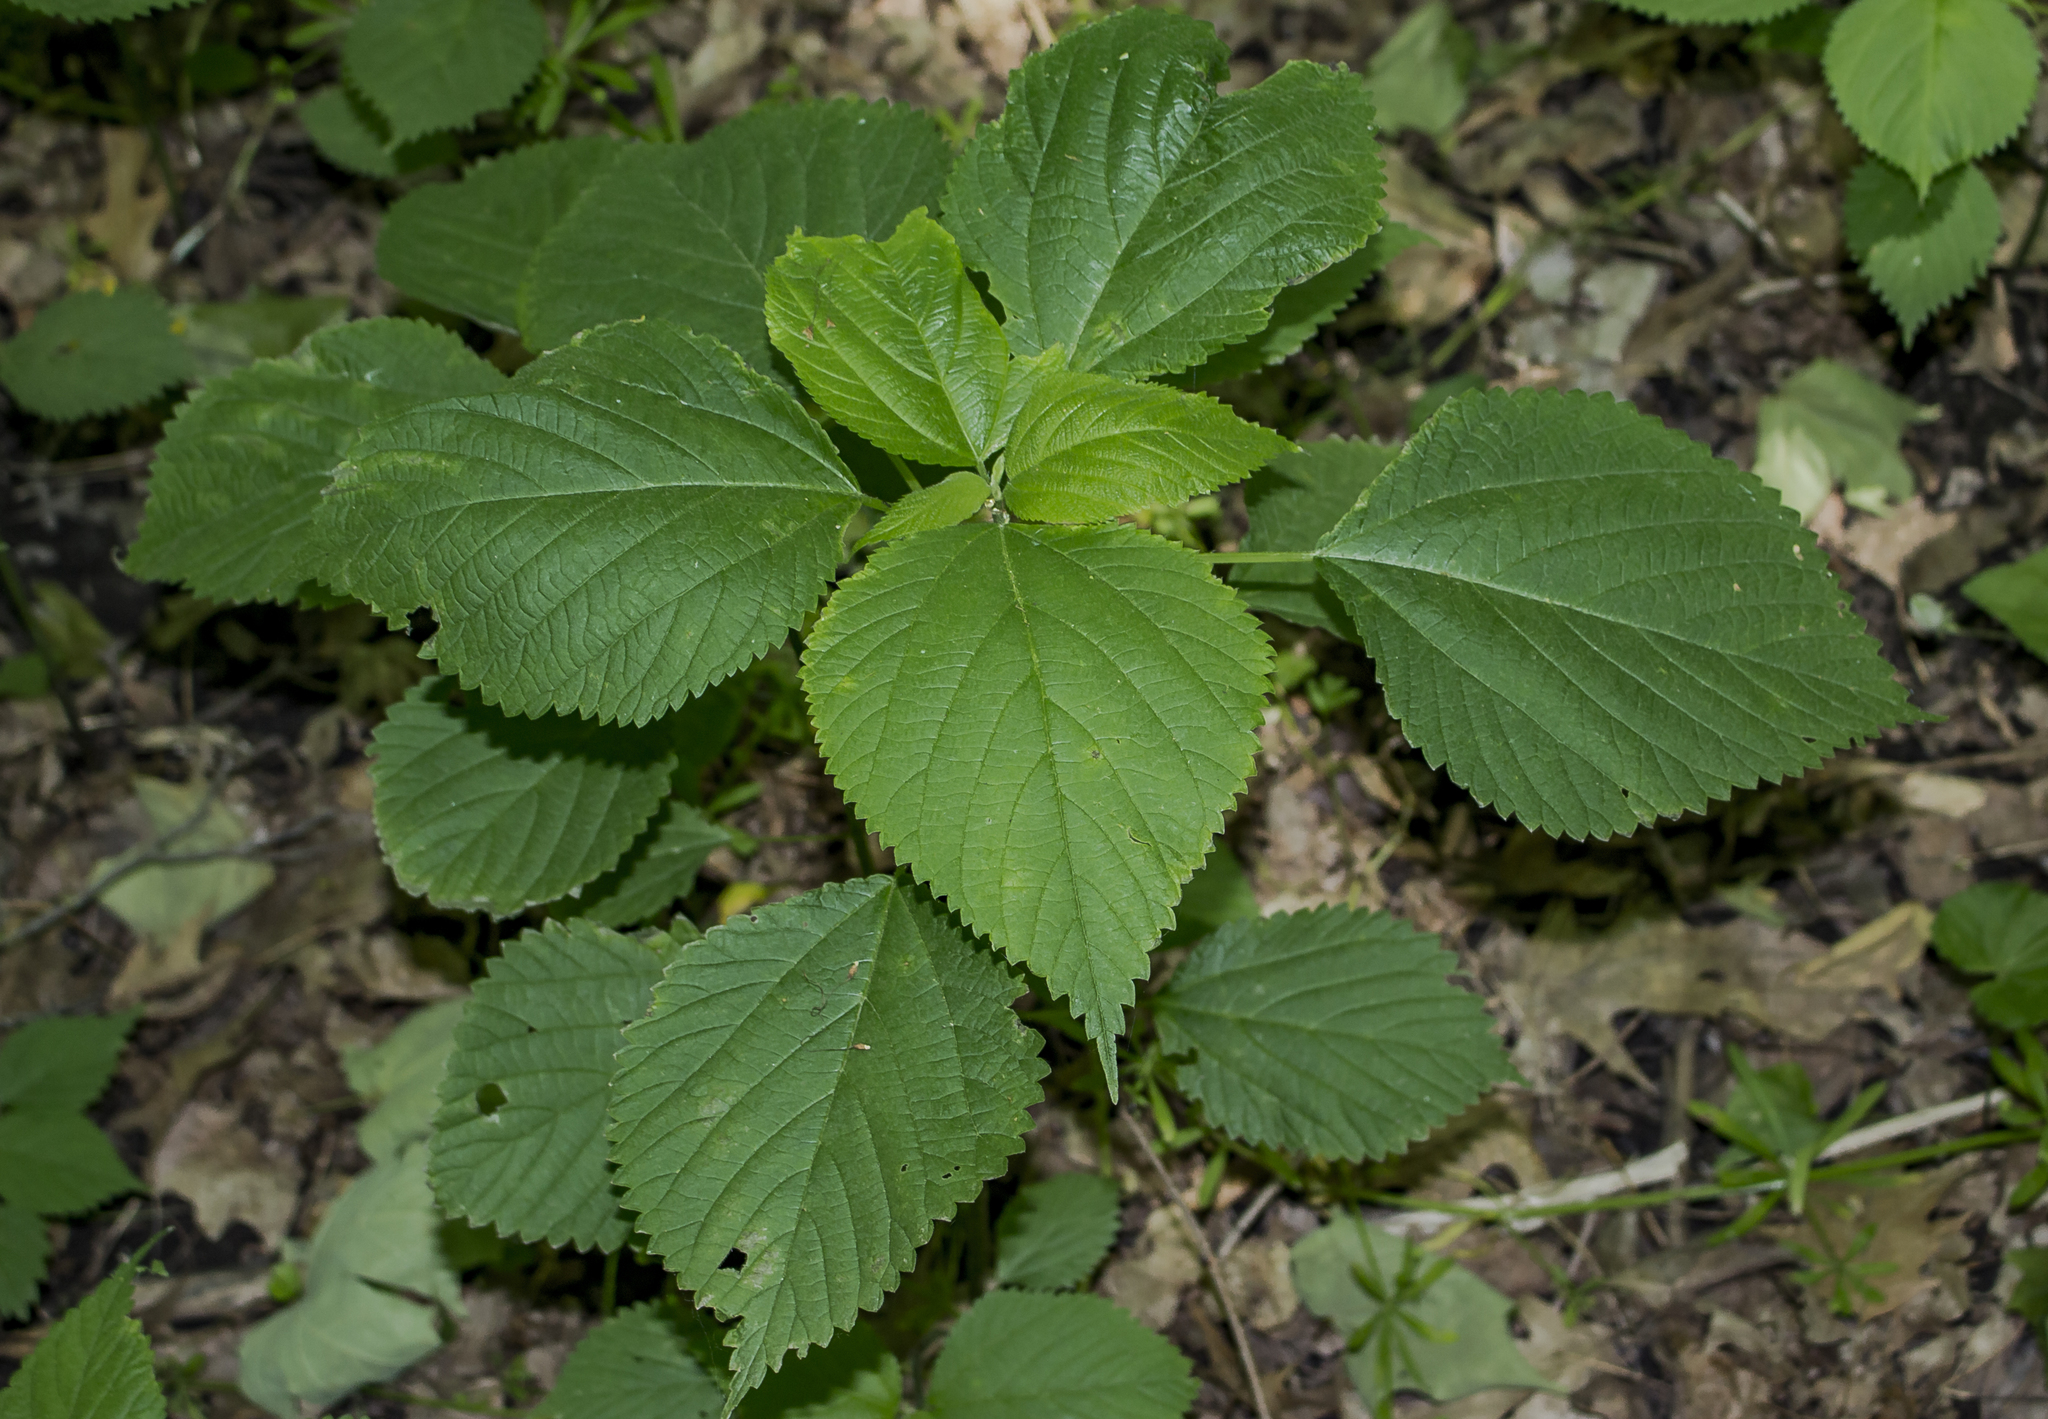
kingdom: Plantae
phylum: Tracheophyta
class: Magnoliopsida
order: Rosales
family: Urticaceae
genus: Laportea
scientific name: Laportea canadensis
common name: Canada nettle
